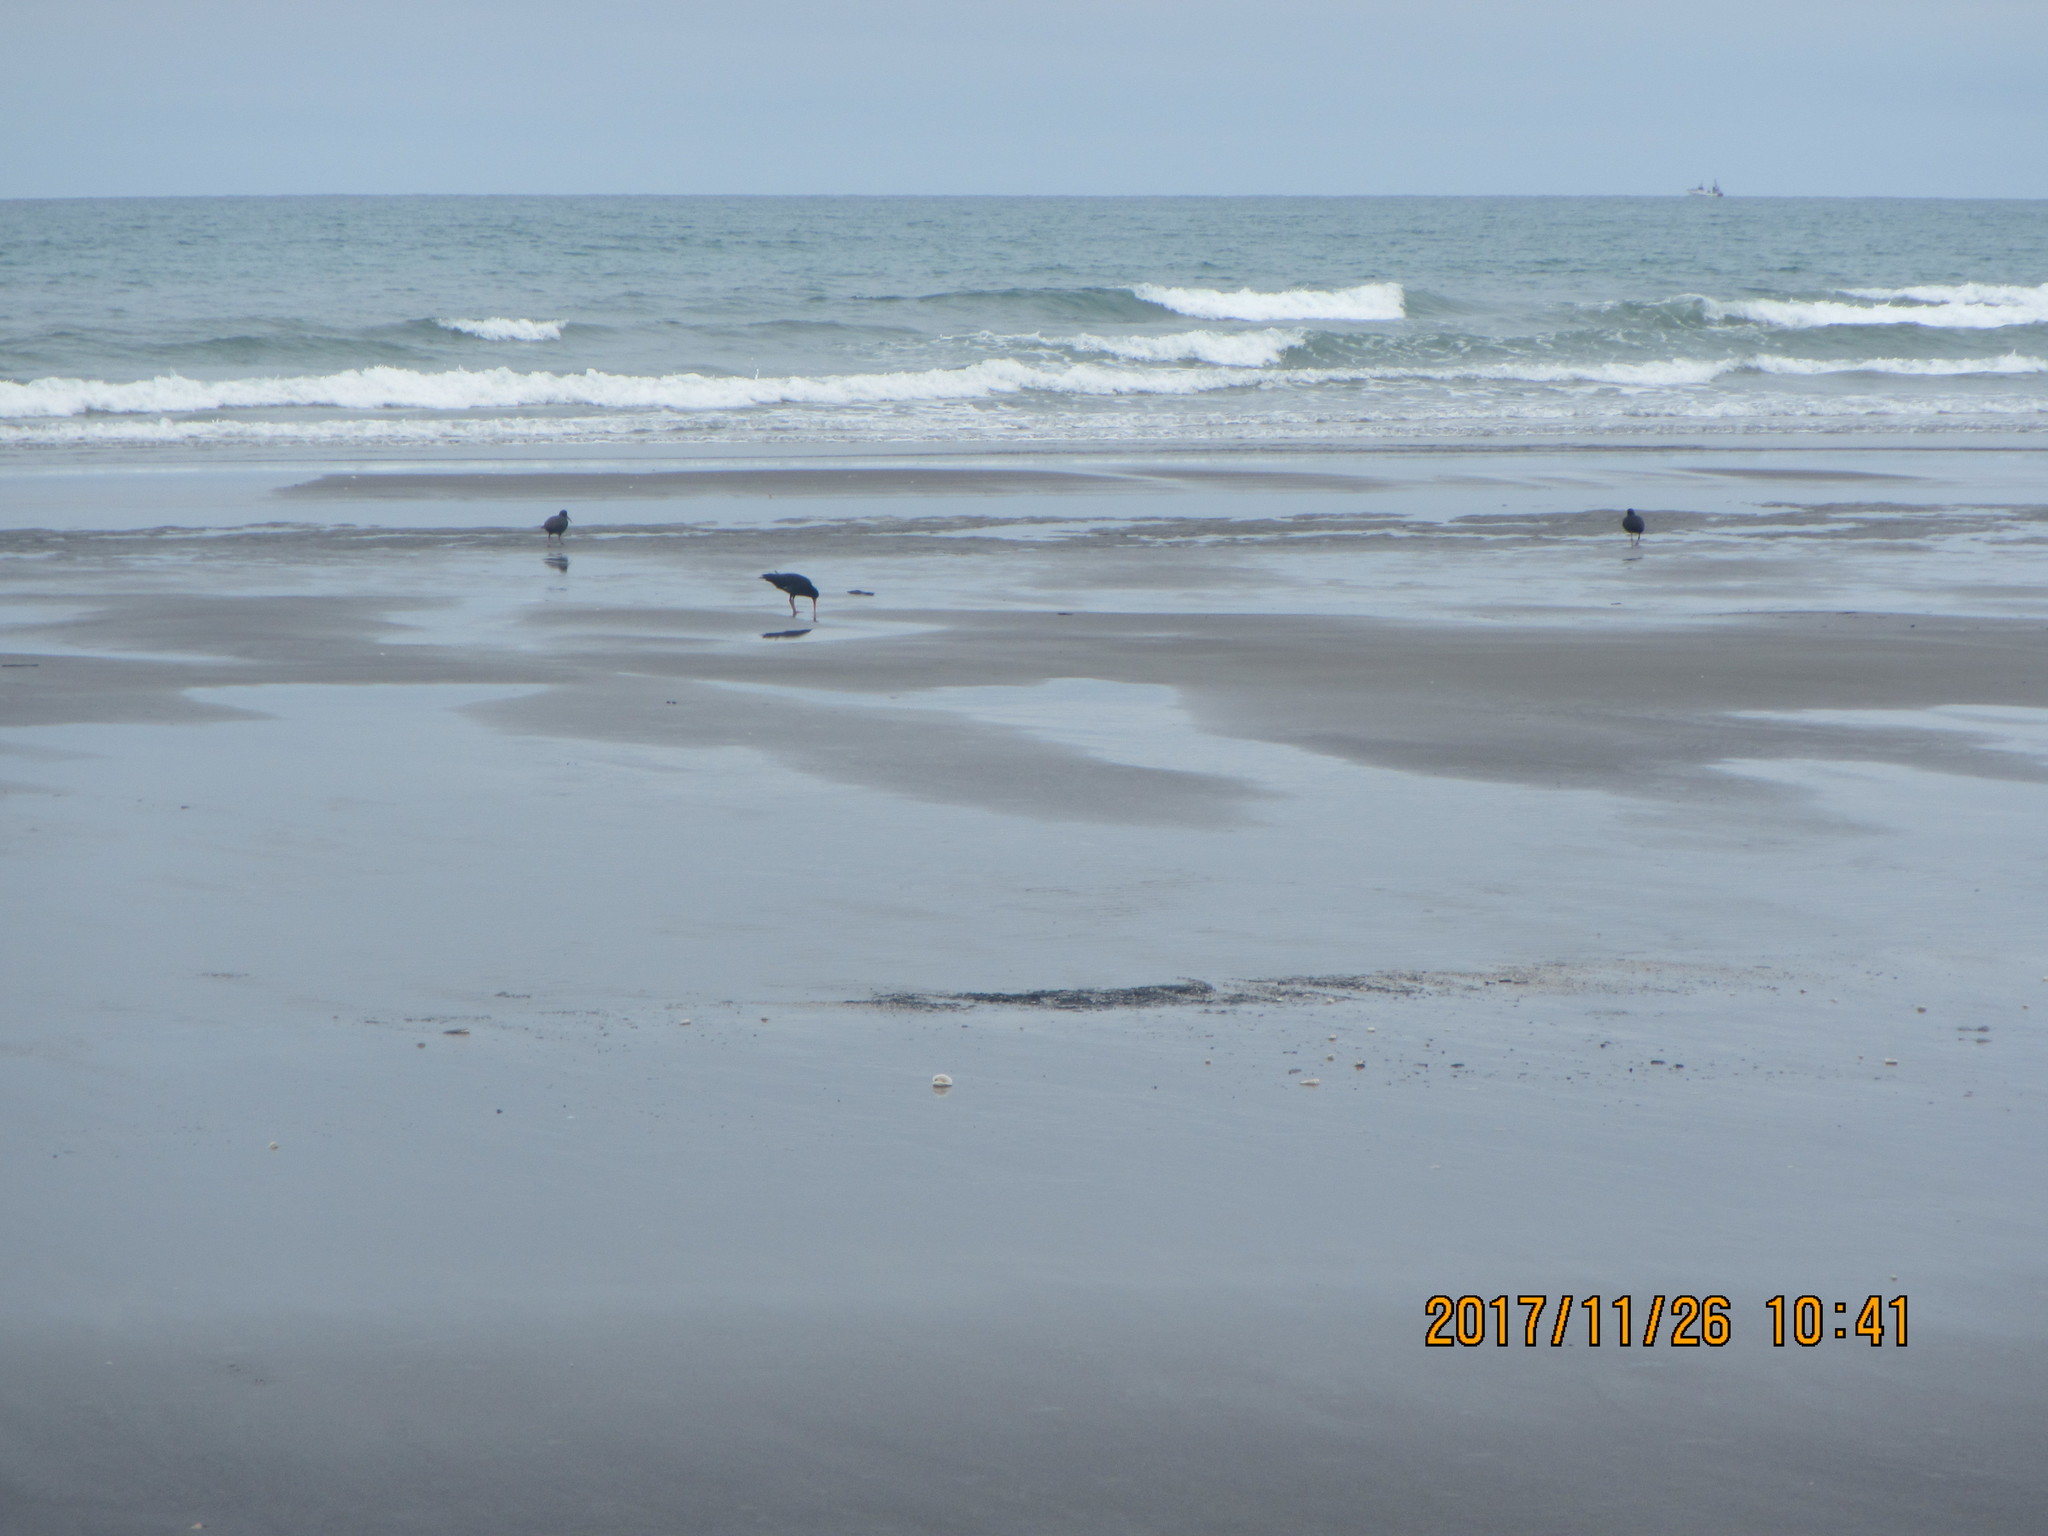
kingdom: Animalia
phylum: Chordata
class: Aves
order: Charadriiformes
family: Haematopodidae
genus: Haematopus
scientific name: Haematopus unicolor
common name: Variable oystercatcher
